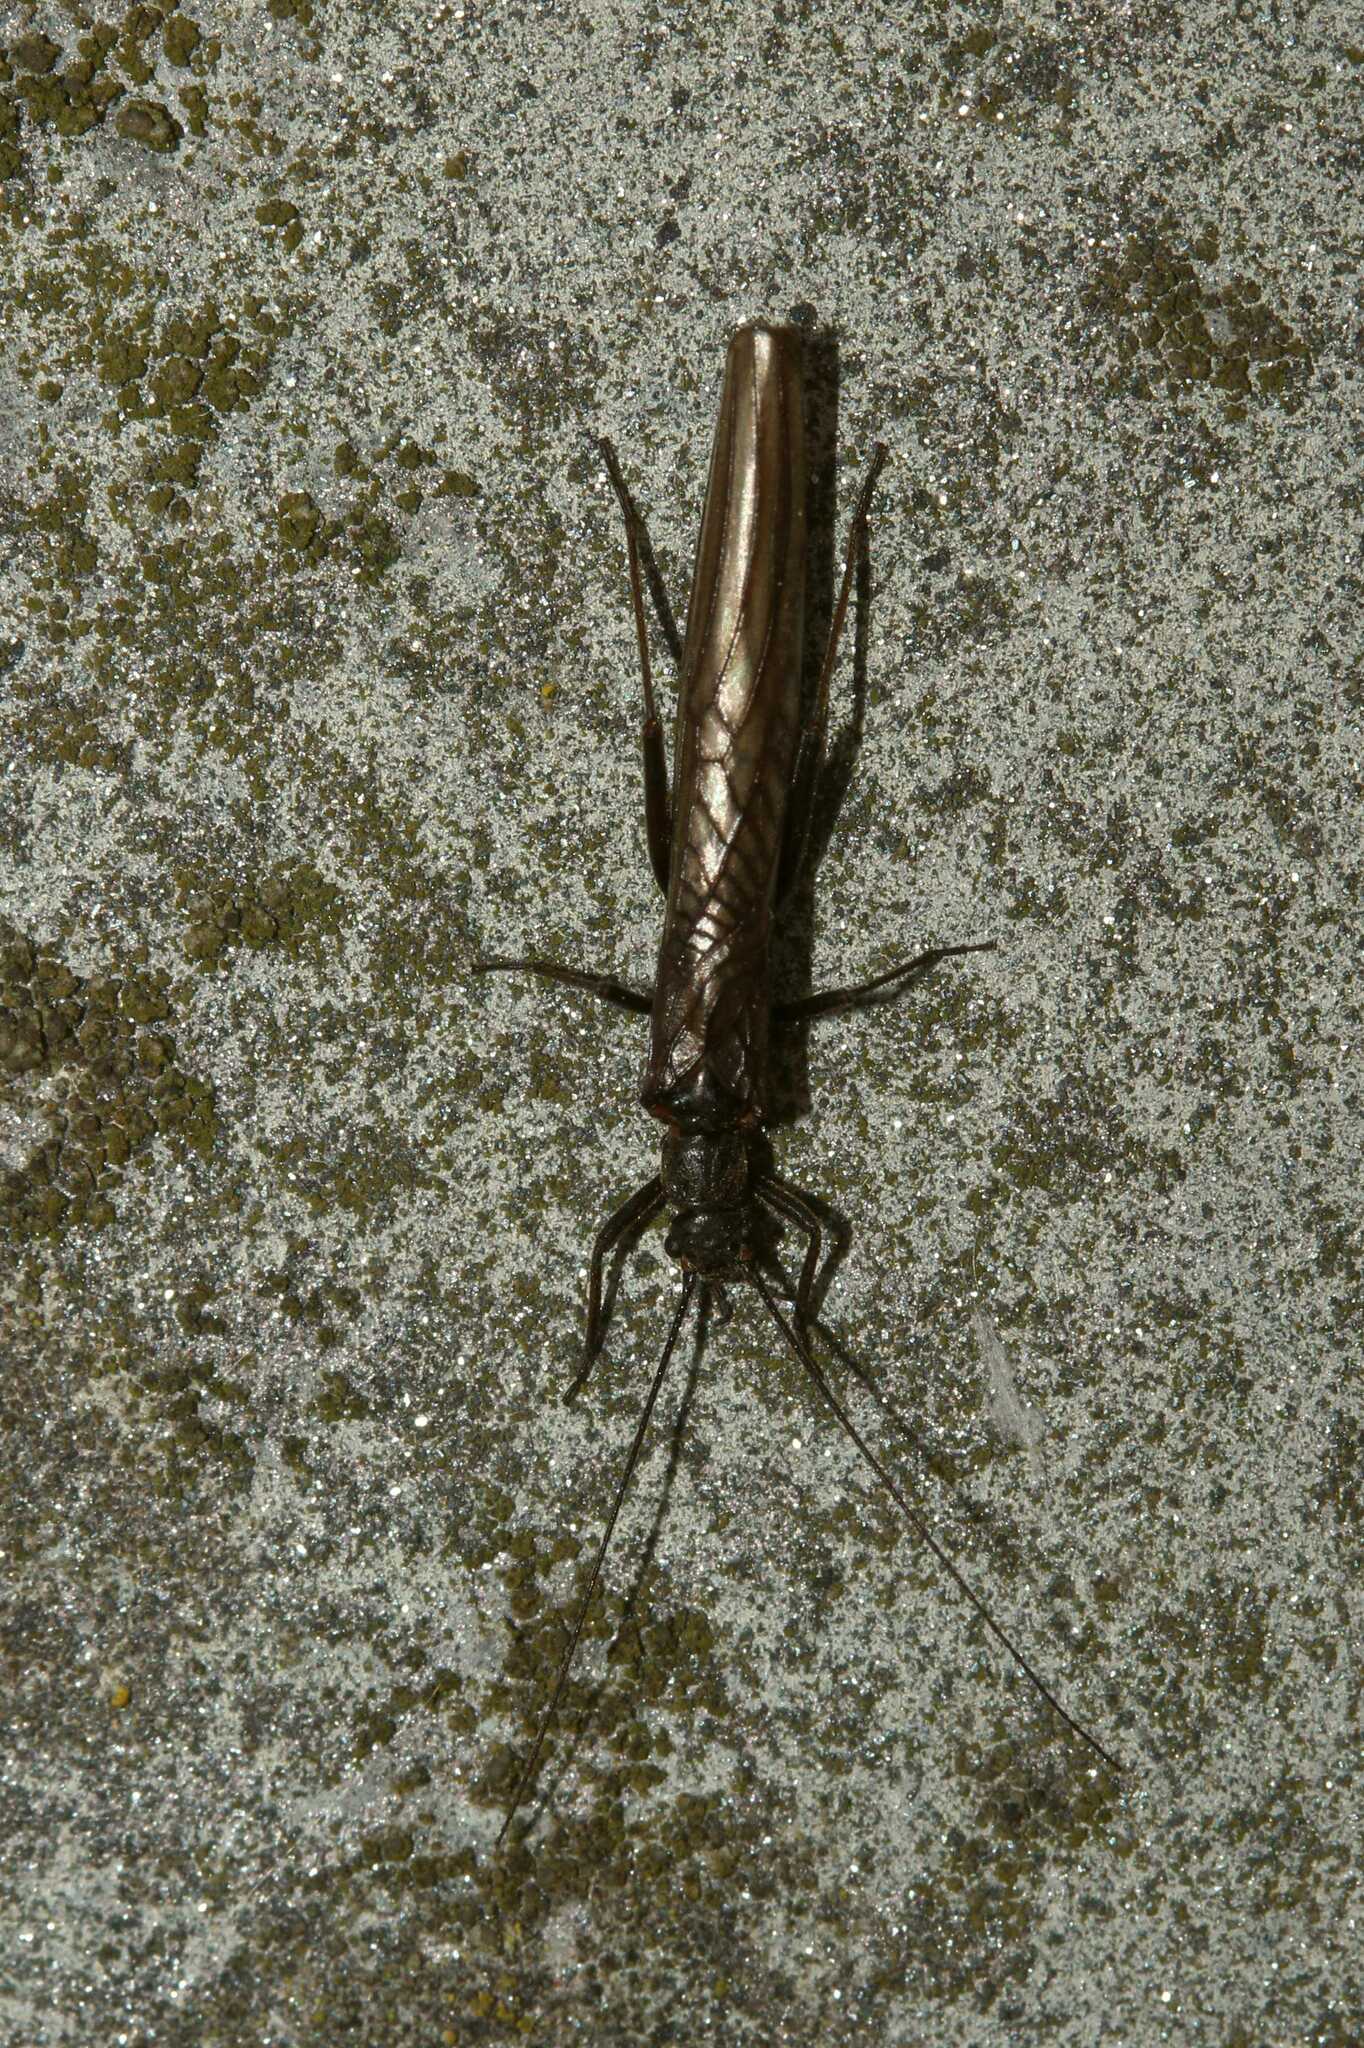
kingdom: Animalia
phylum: Arthropoda
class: Insecta
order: Plecoptera
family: Leuctridae
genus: Leuctra
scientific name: Leuctra
